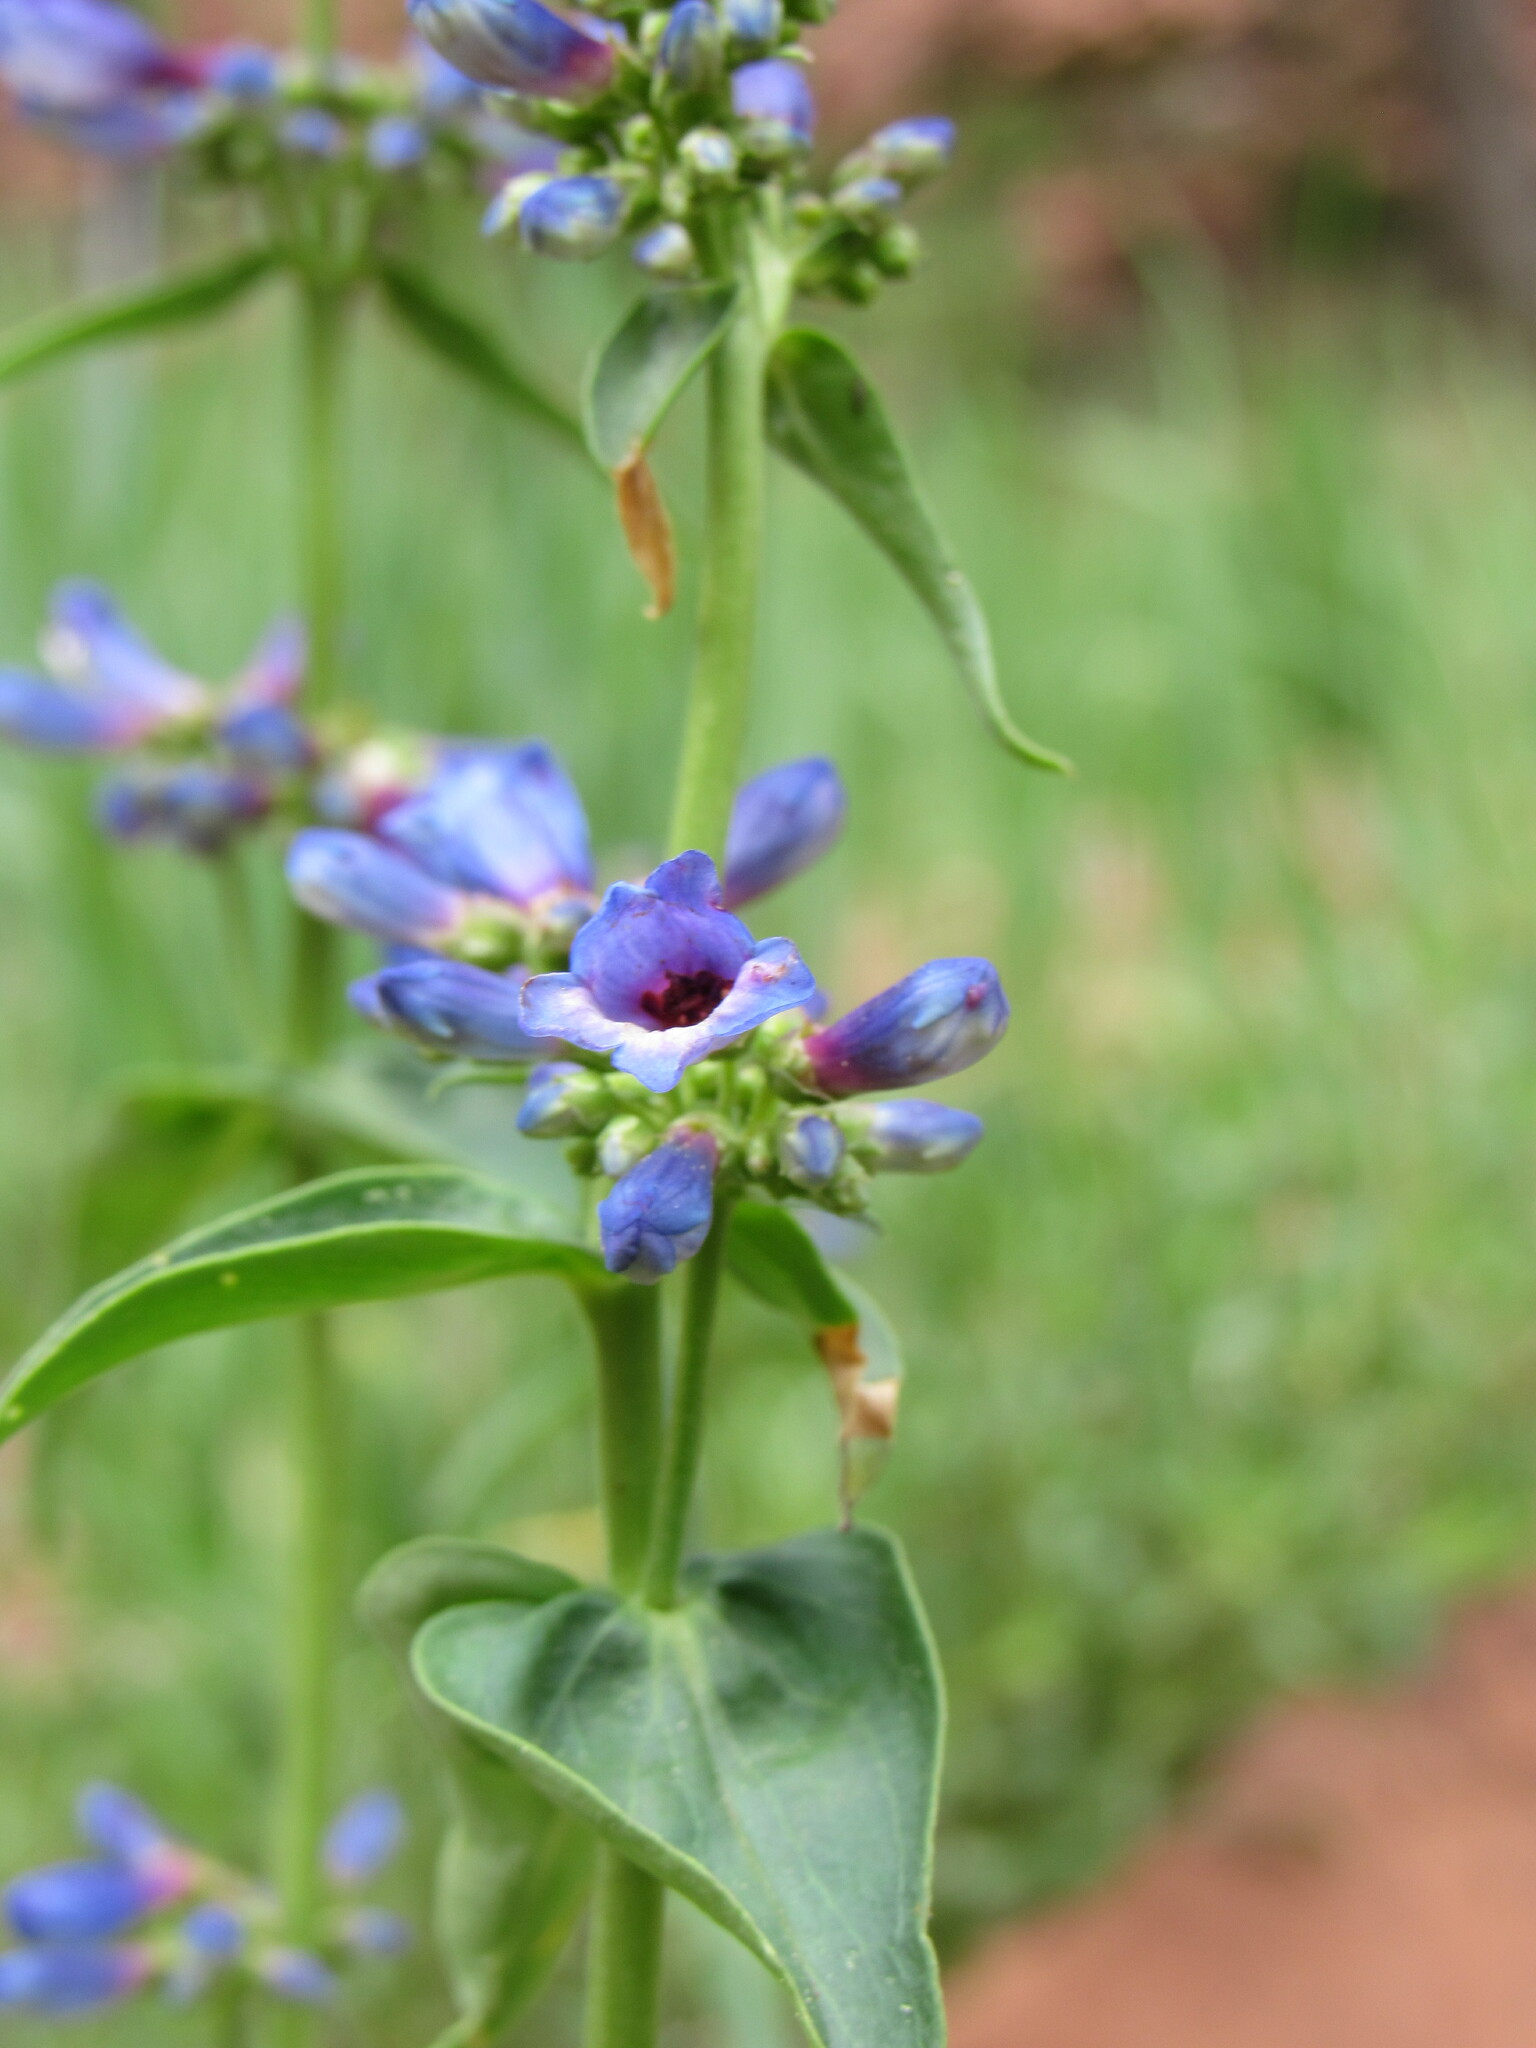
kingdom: Plantae
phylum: Tracheophyta
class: Magnoliopsida
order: Lamiales
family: Plantaginaceae
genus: Penstemon
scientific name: Penstemon watsonii
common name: Watson's penstemon
